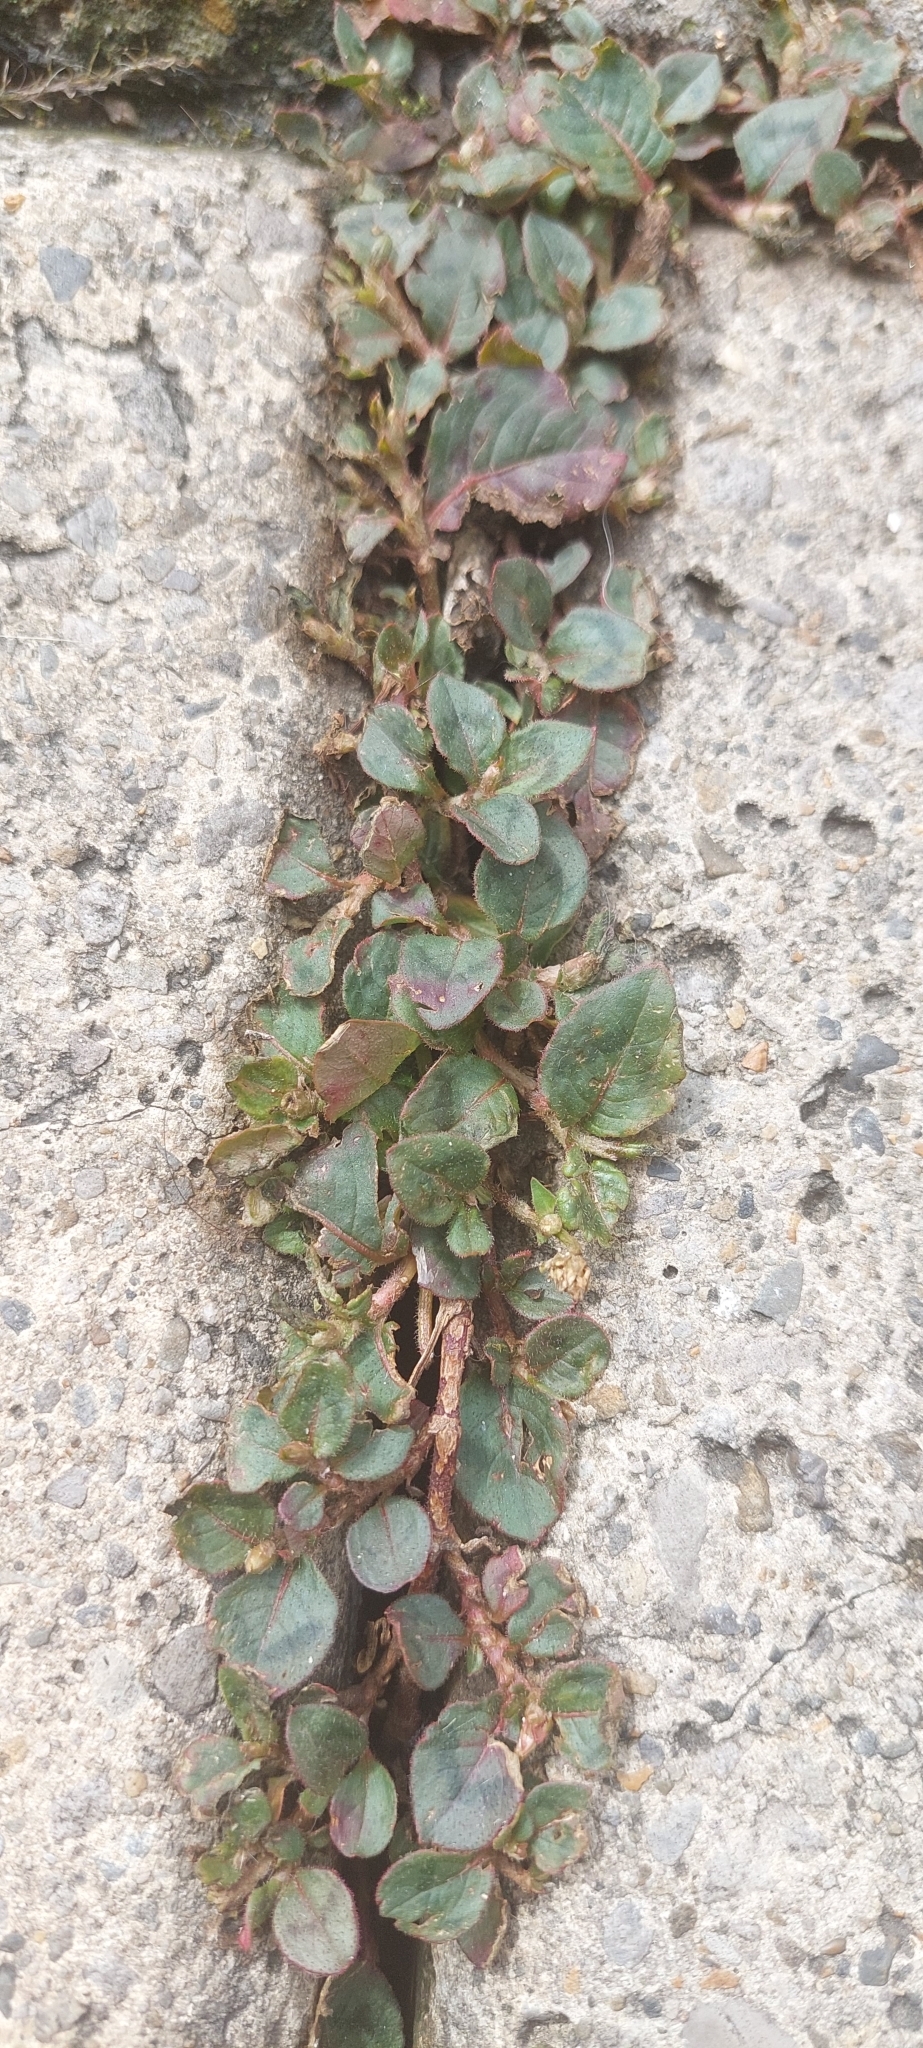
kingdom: Plantae
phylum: Tracheophyta
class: Magnoliopsida
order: Caryophyllales
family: Polygonaceae
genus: Persicaria
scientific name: Persicaria capitata
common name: Pinkhead smartweed
